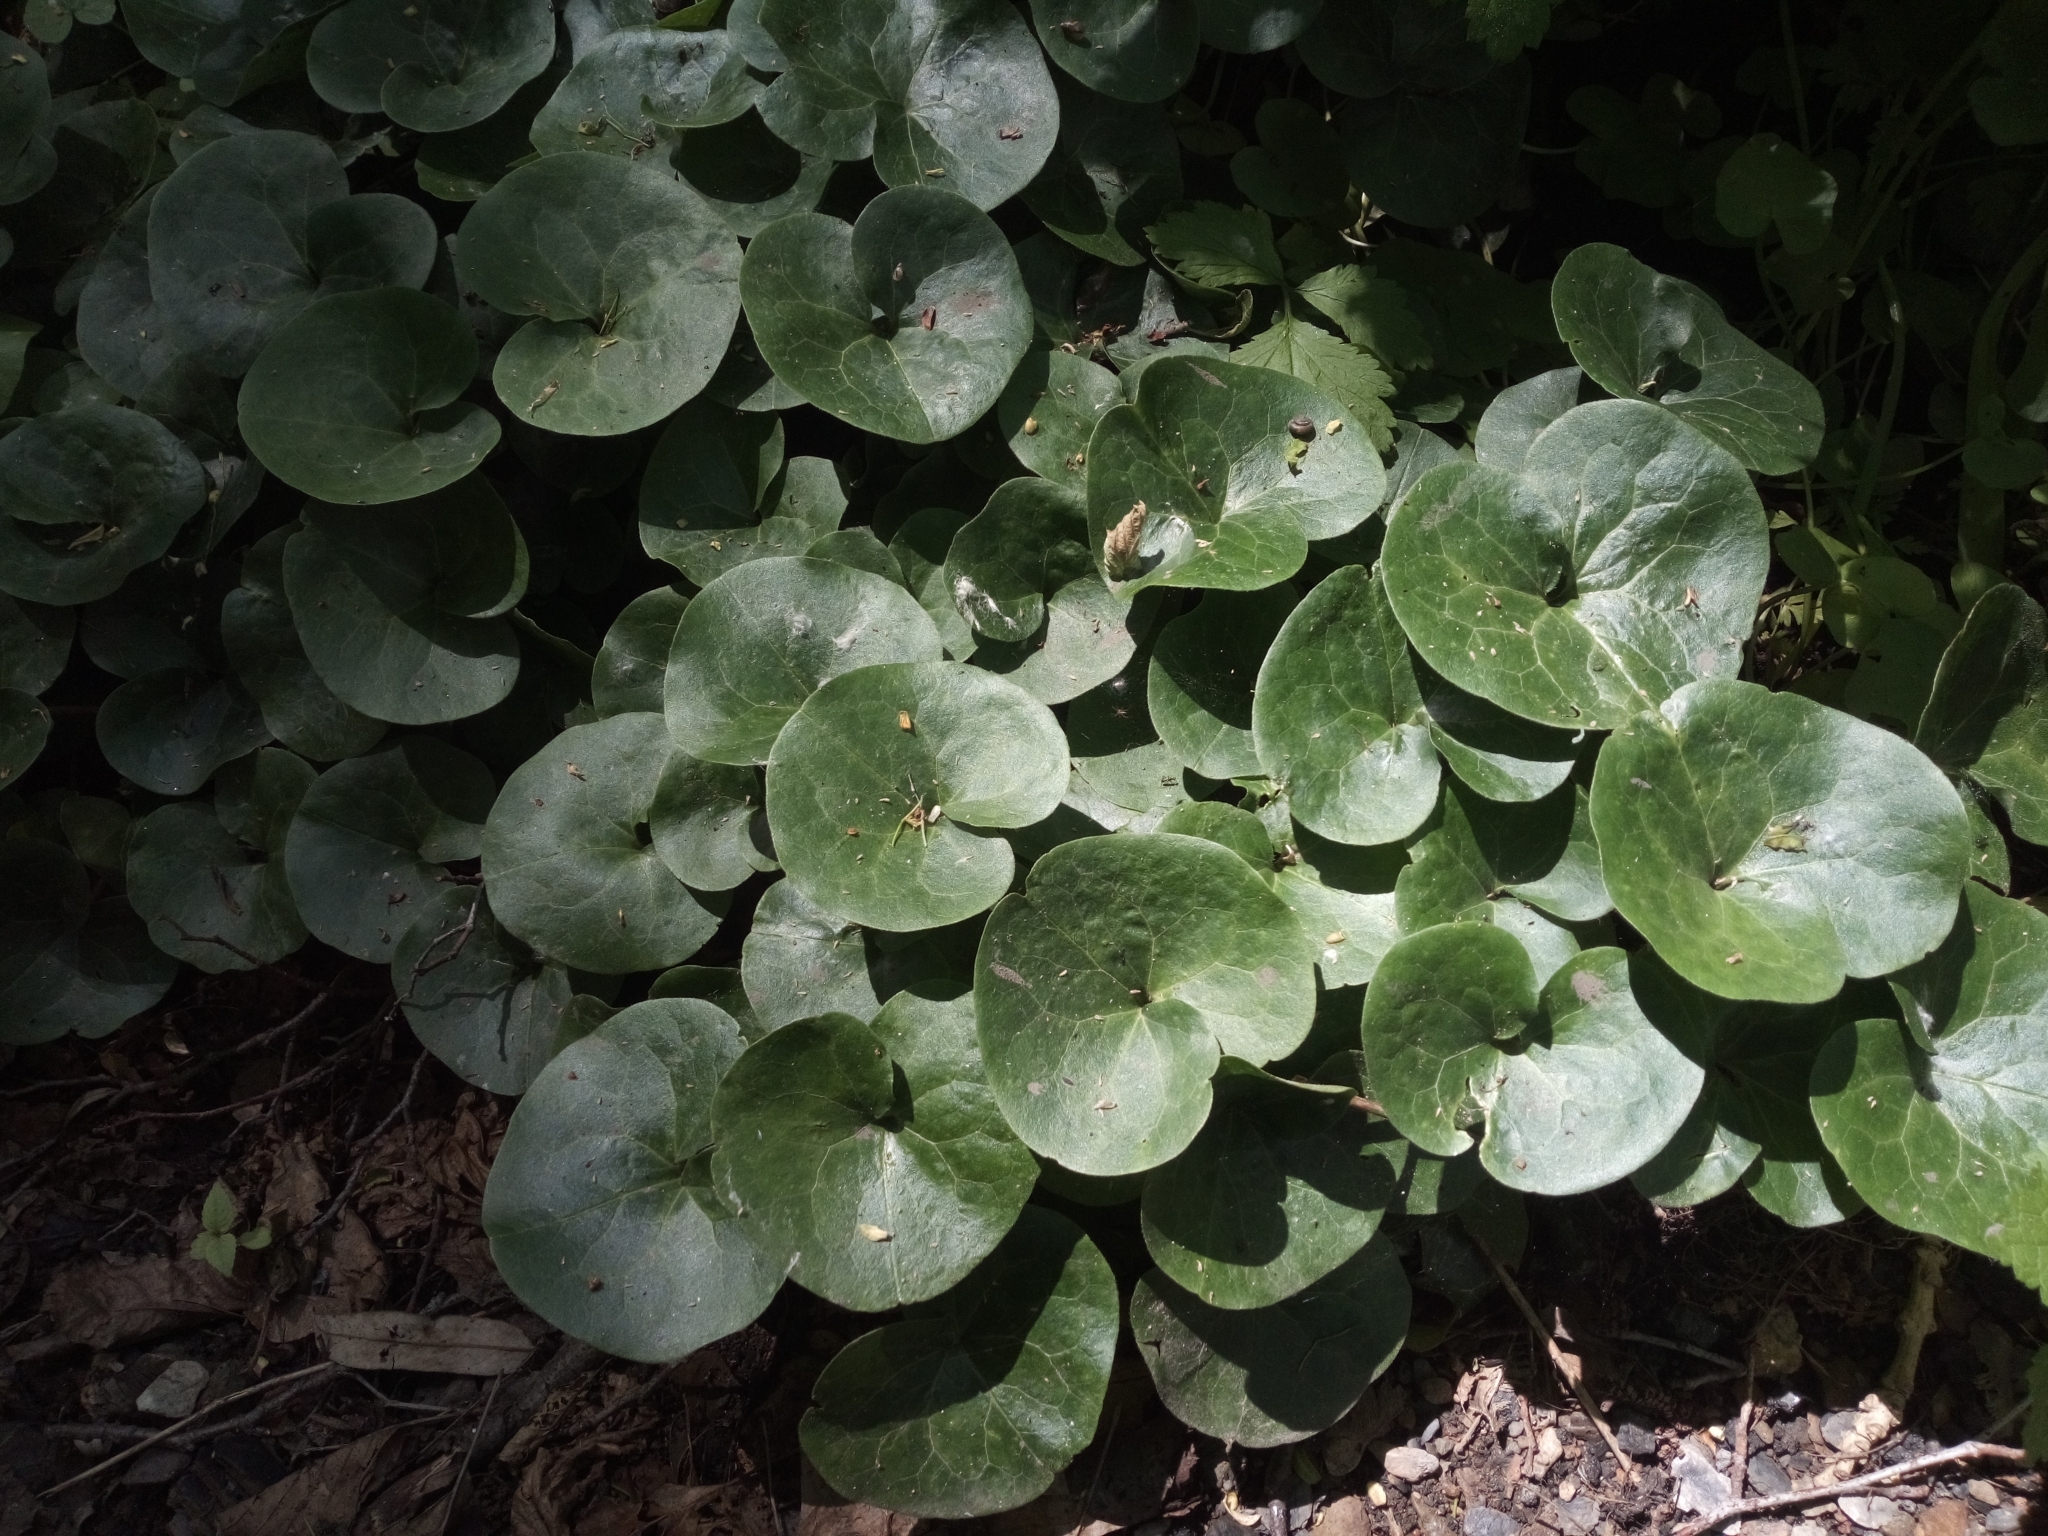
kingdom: Plantae
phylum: Tracheophyta
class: Magnoliopsida
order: Piperales
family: Aristolochiaceae
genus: Asarum
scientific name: Asarum europaeum
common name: Asarabacca
